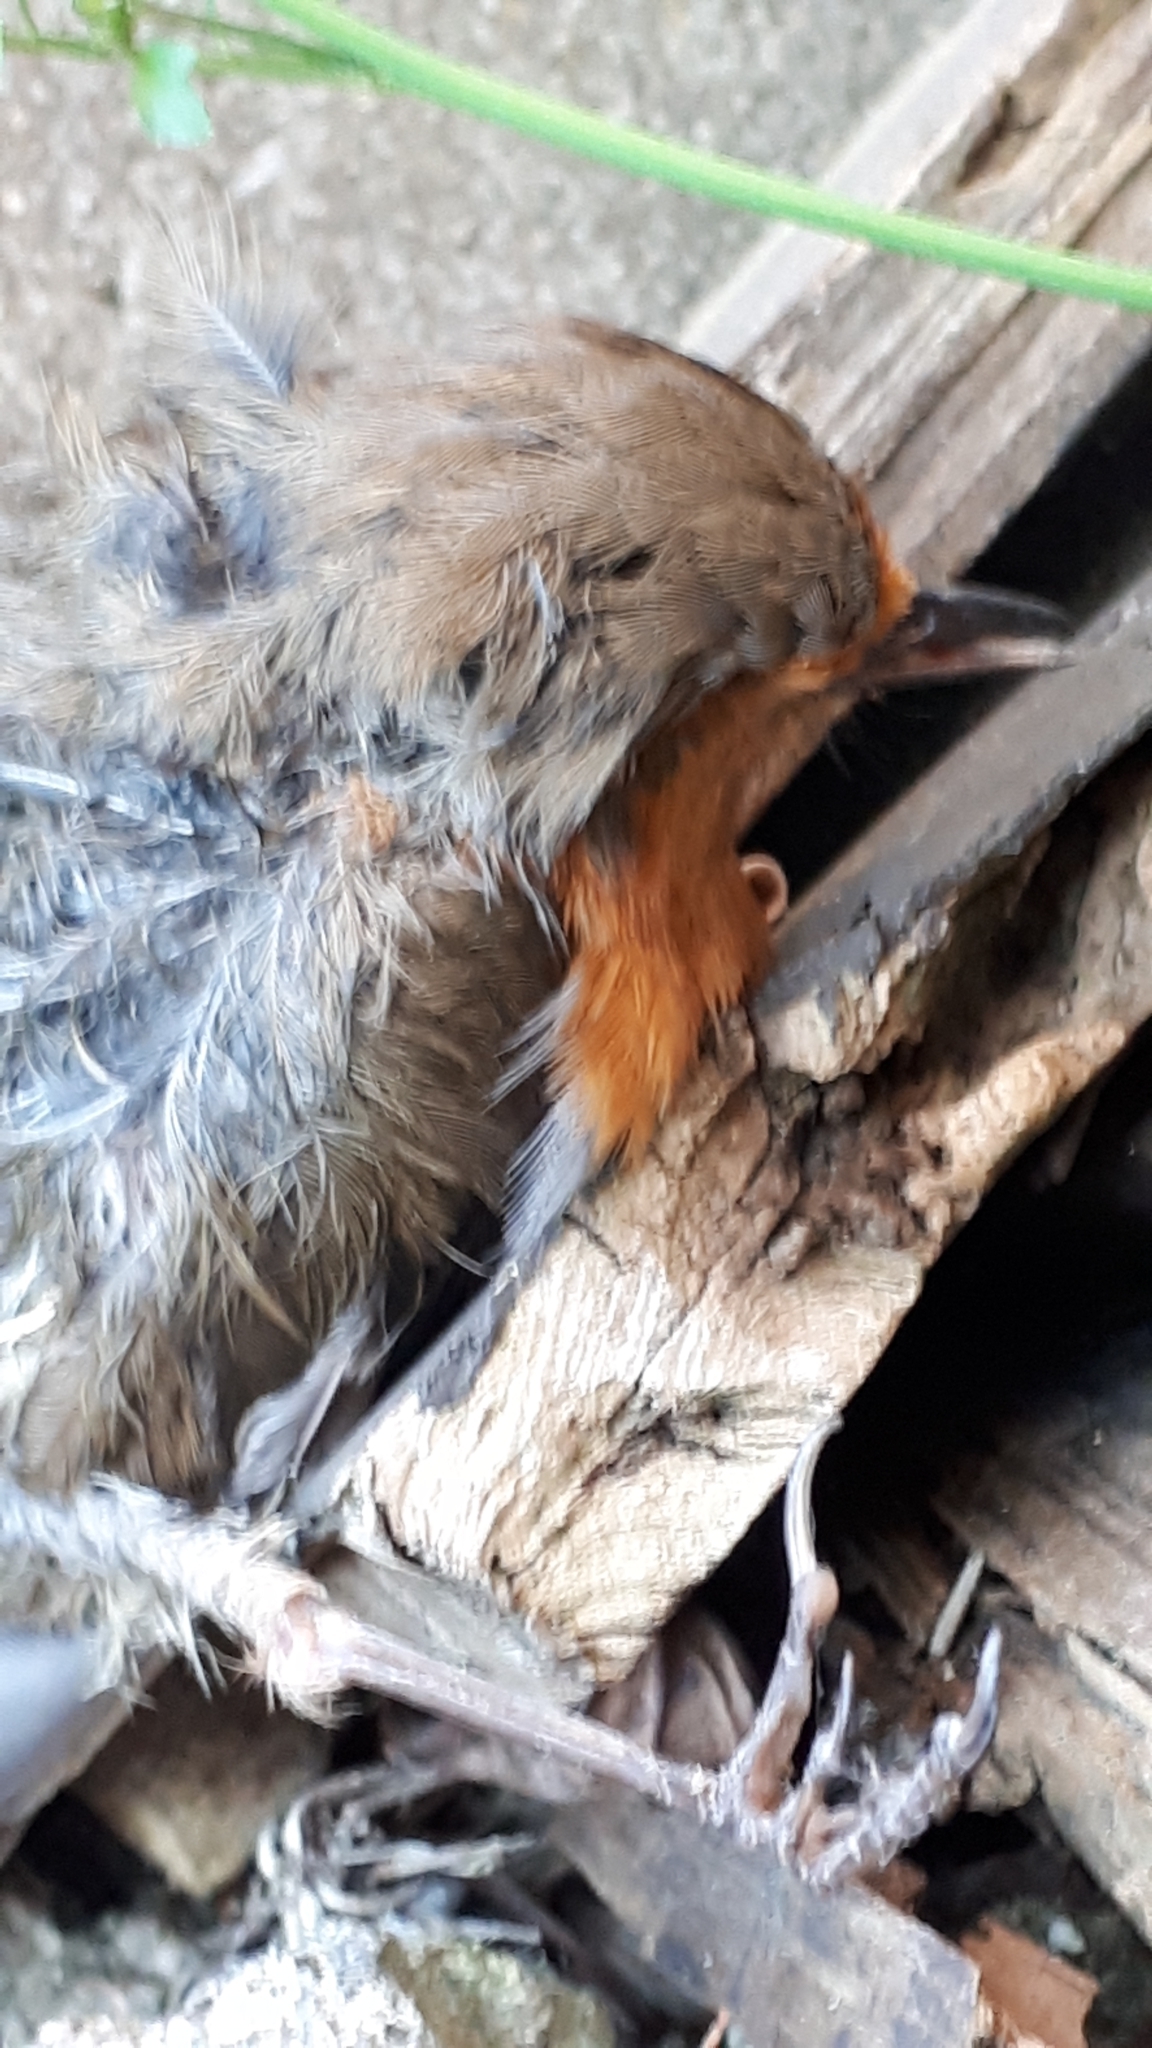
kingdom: Animalia
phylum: Chordata
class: Aves
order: Passeriformes
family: Muscicapidae
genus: Erithacus
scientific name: Erithacus rubecula
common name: European robin
